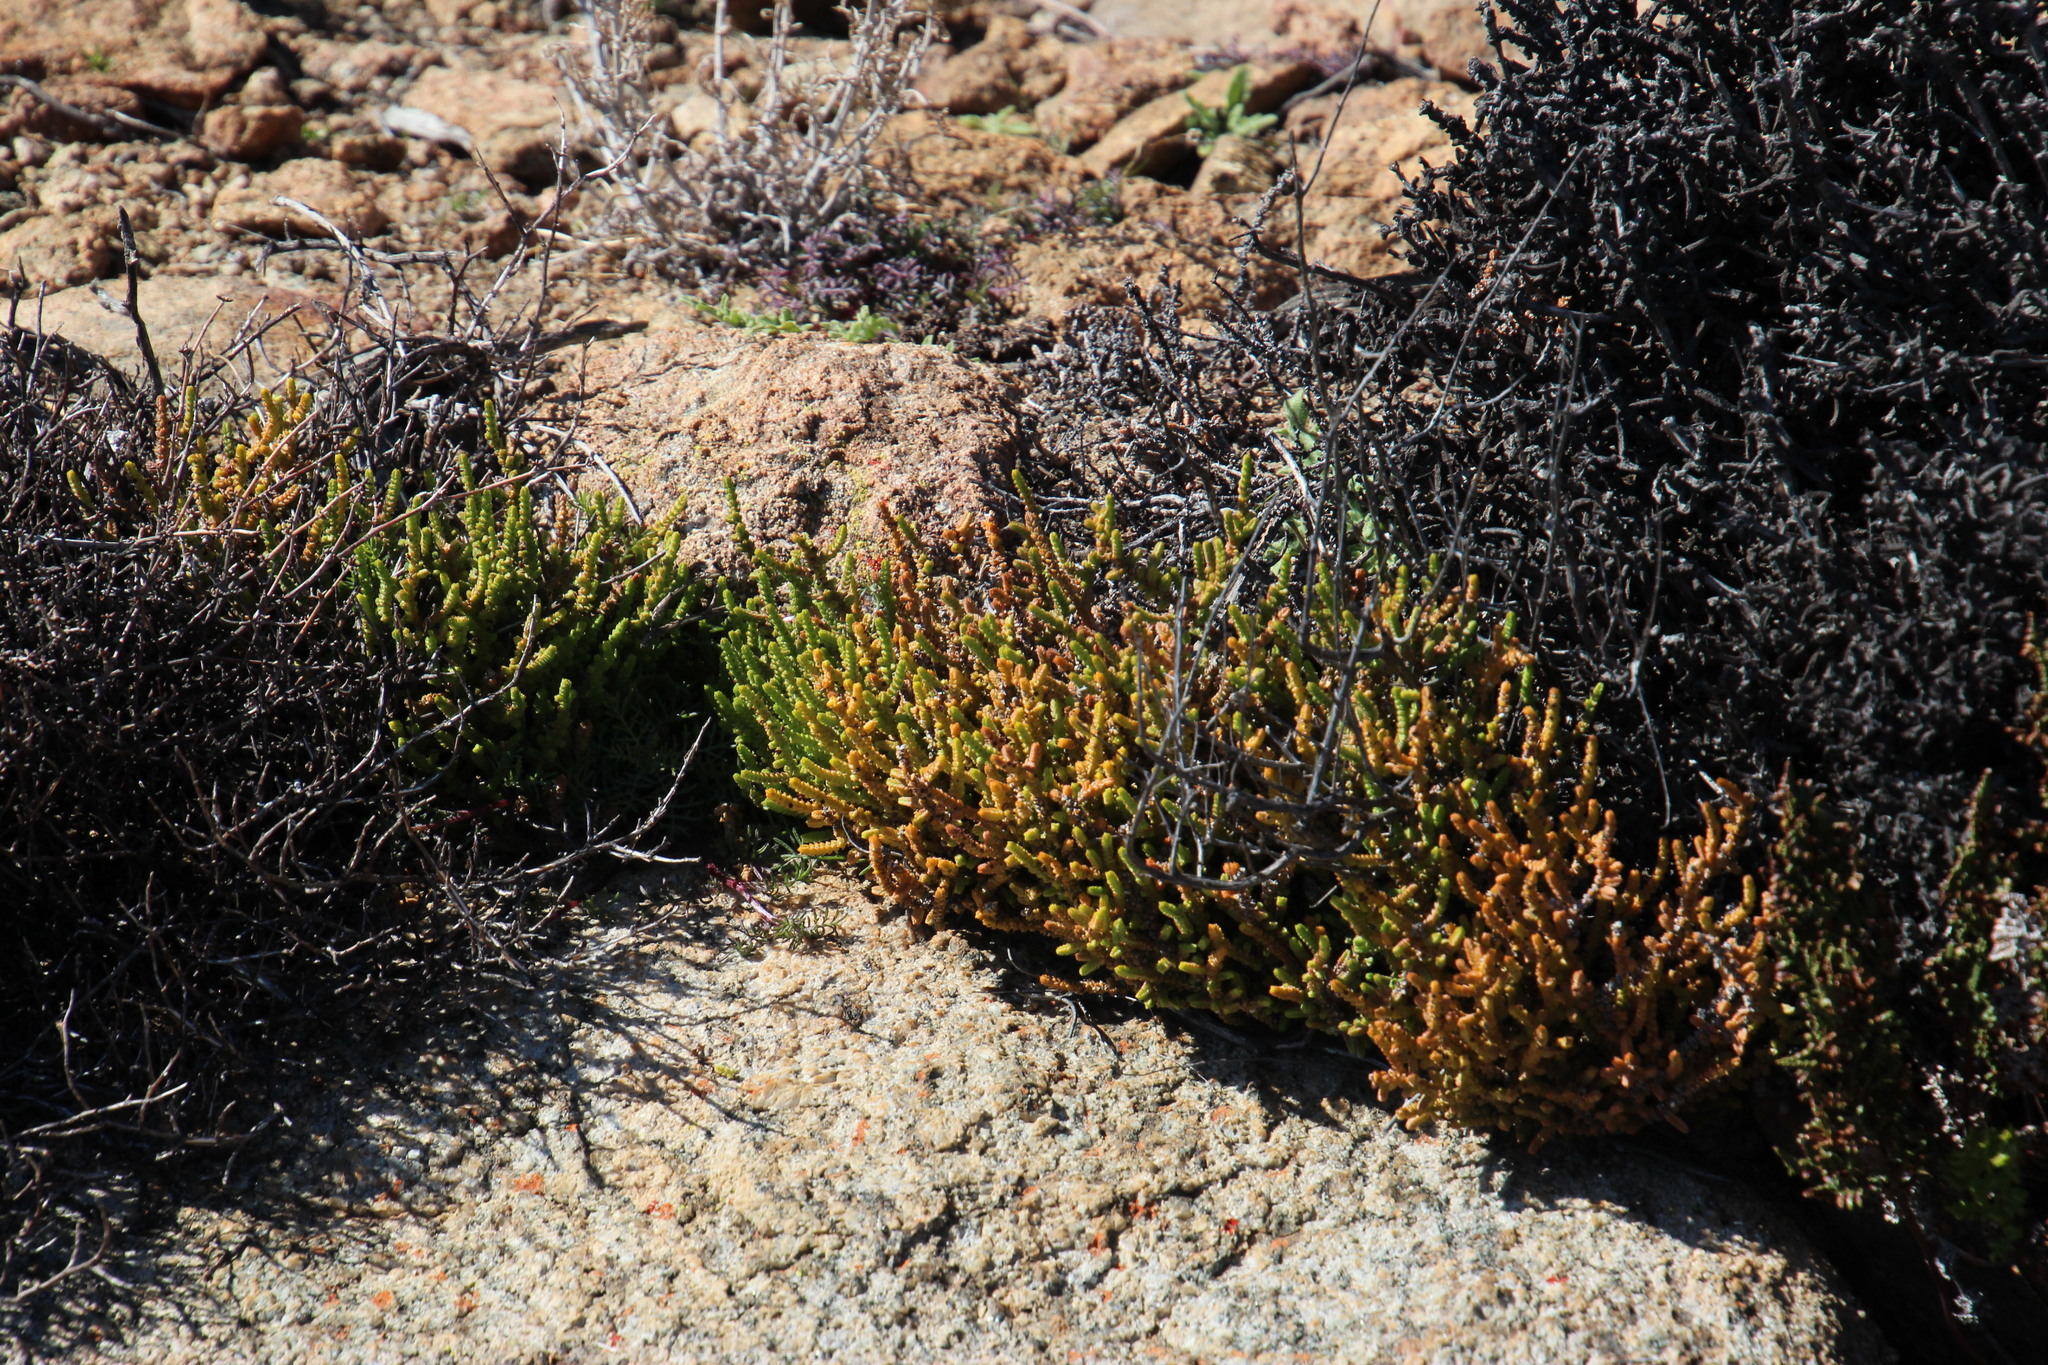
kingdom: Plantae
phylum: Tracheophyta
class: Magnoliopsida
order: Saxifragales
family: Crassulaceae
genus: Crassula
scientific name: Crassula muscosa
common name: Toy-cypress
